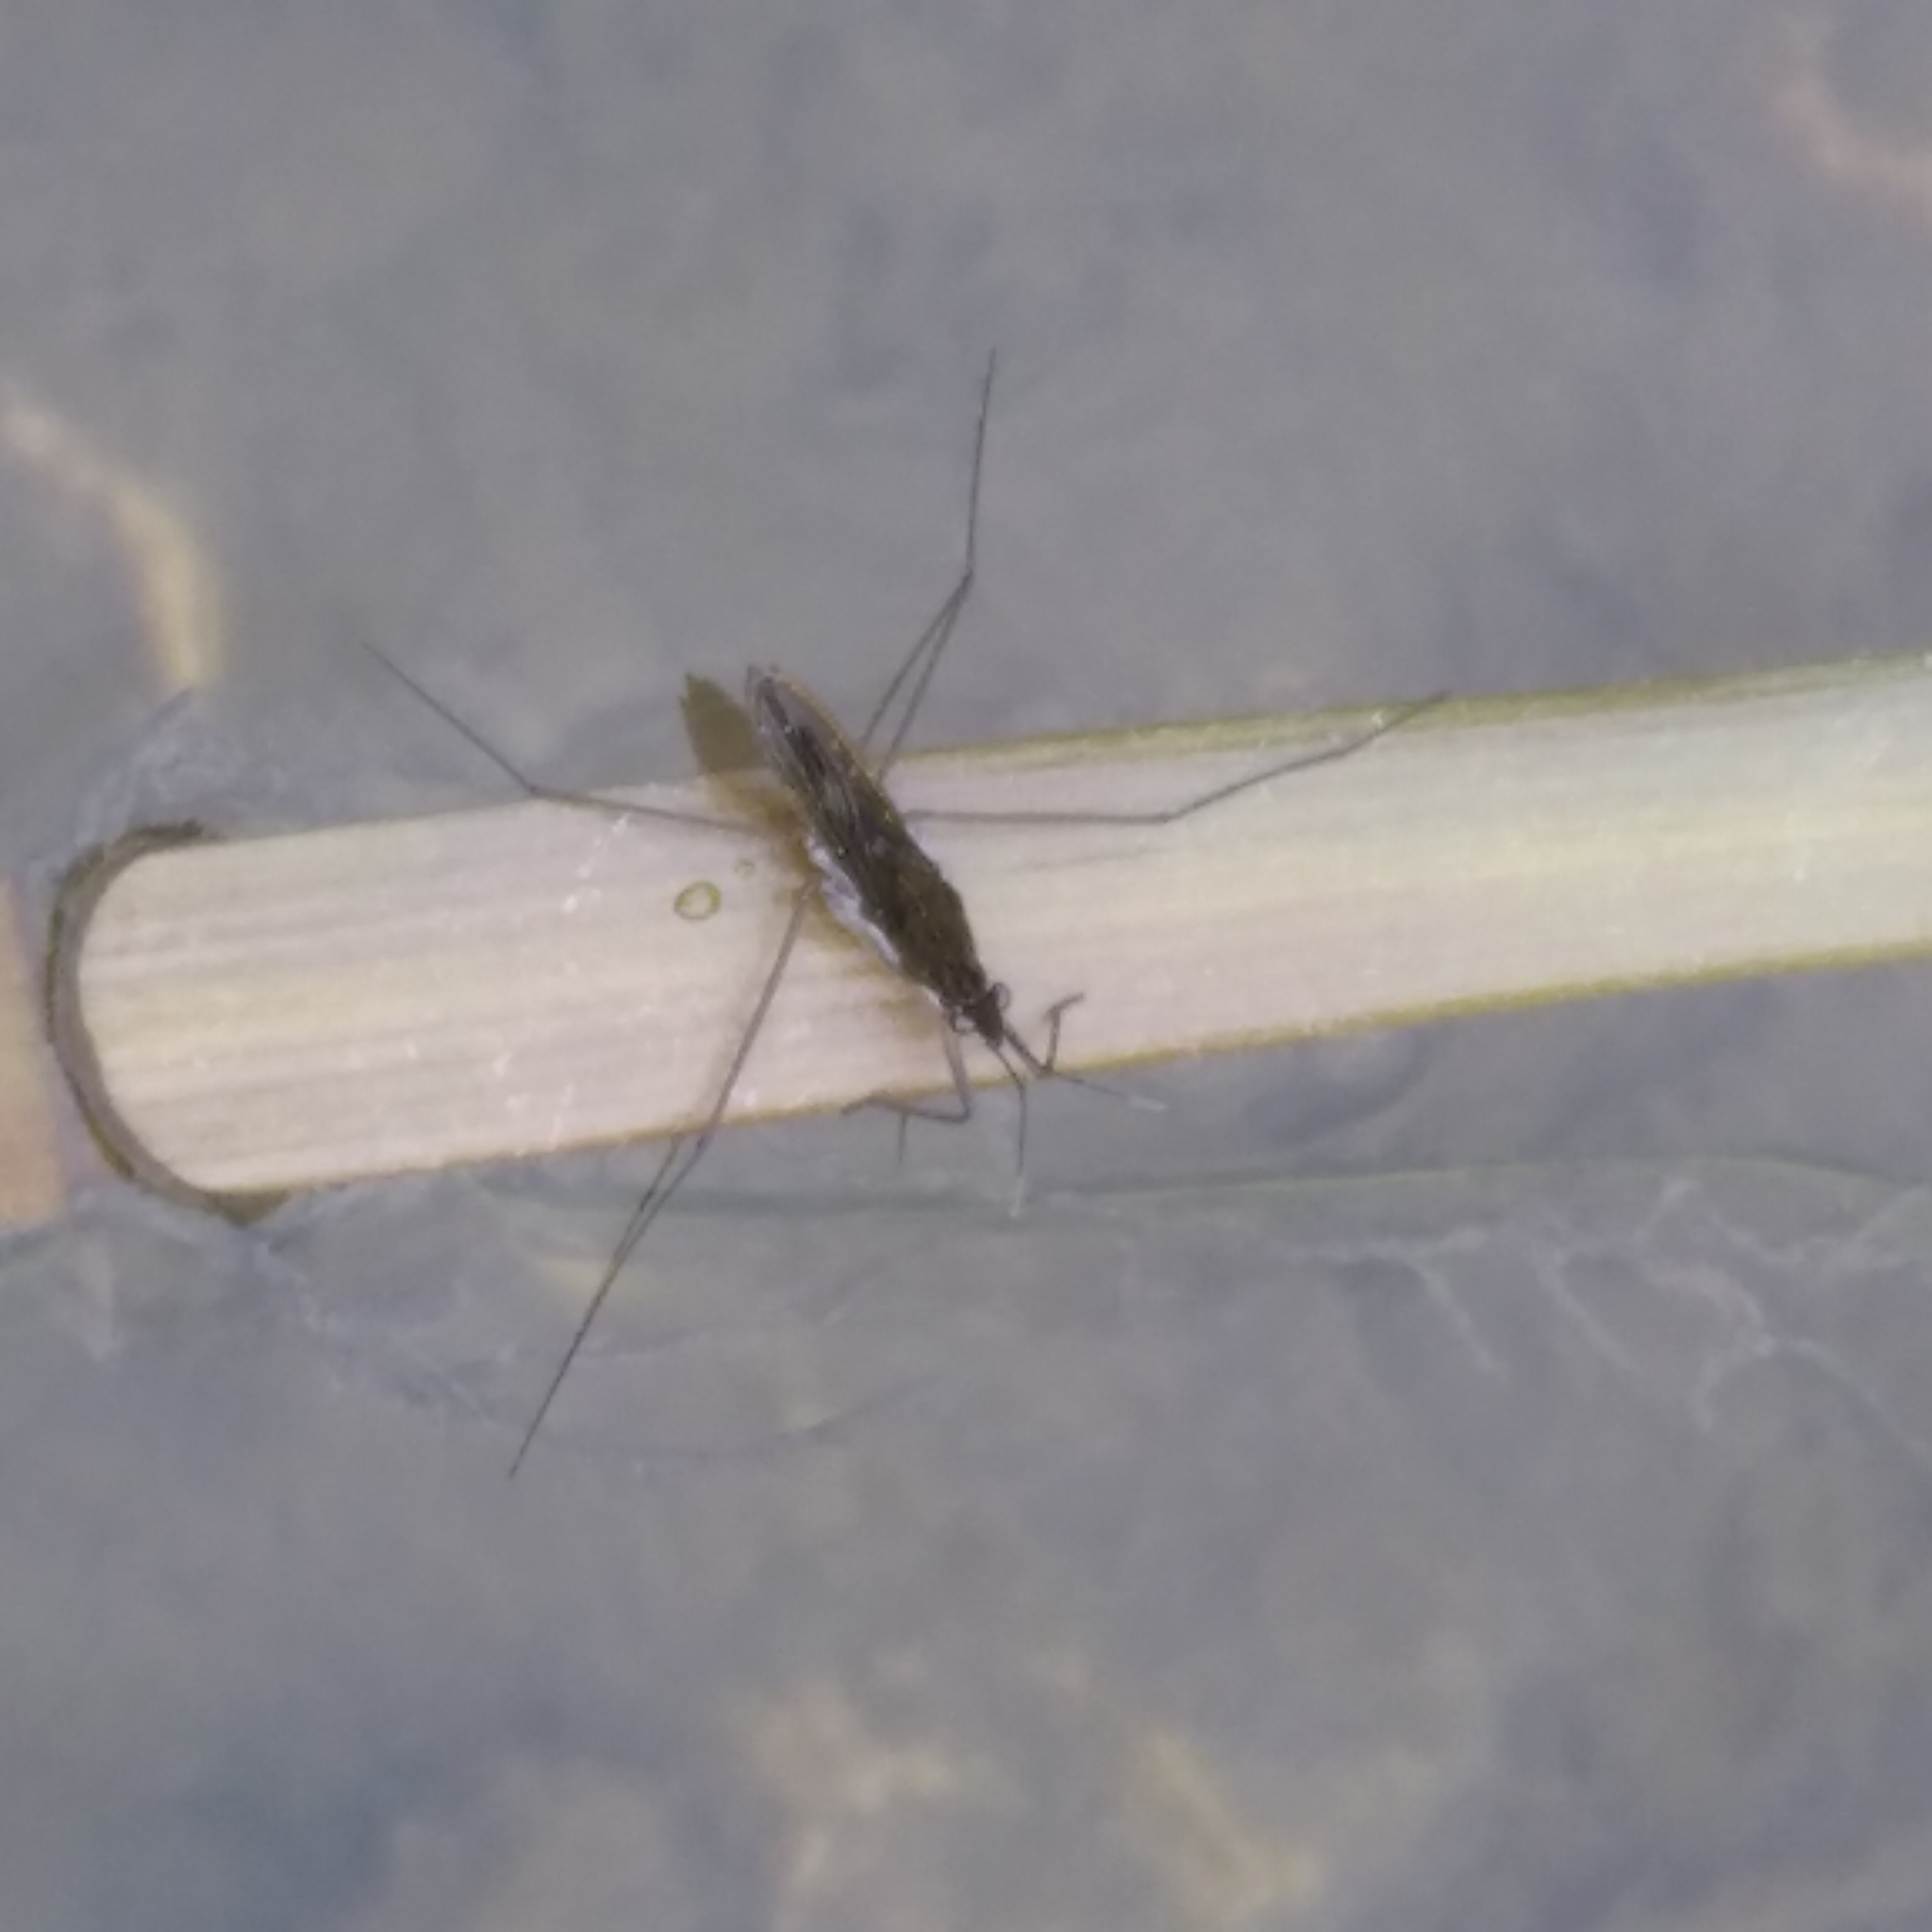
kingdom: Animalia
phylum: Arthropoda
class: Insecta
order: Hemiptera
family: Gerridae
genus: Gerris
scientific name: Gerris
